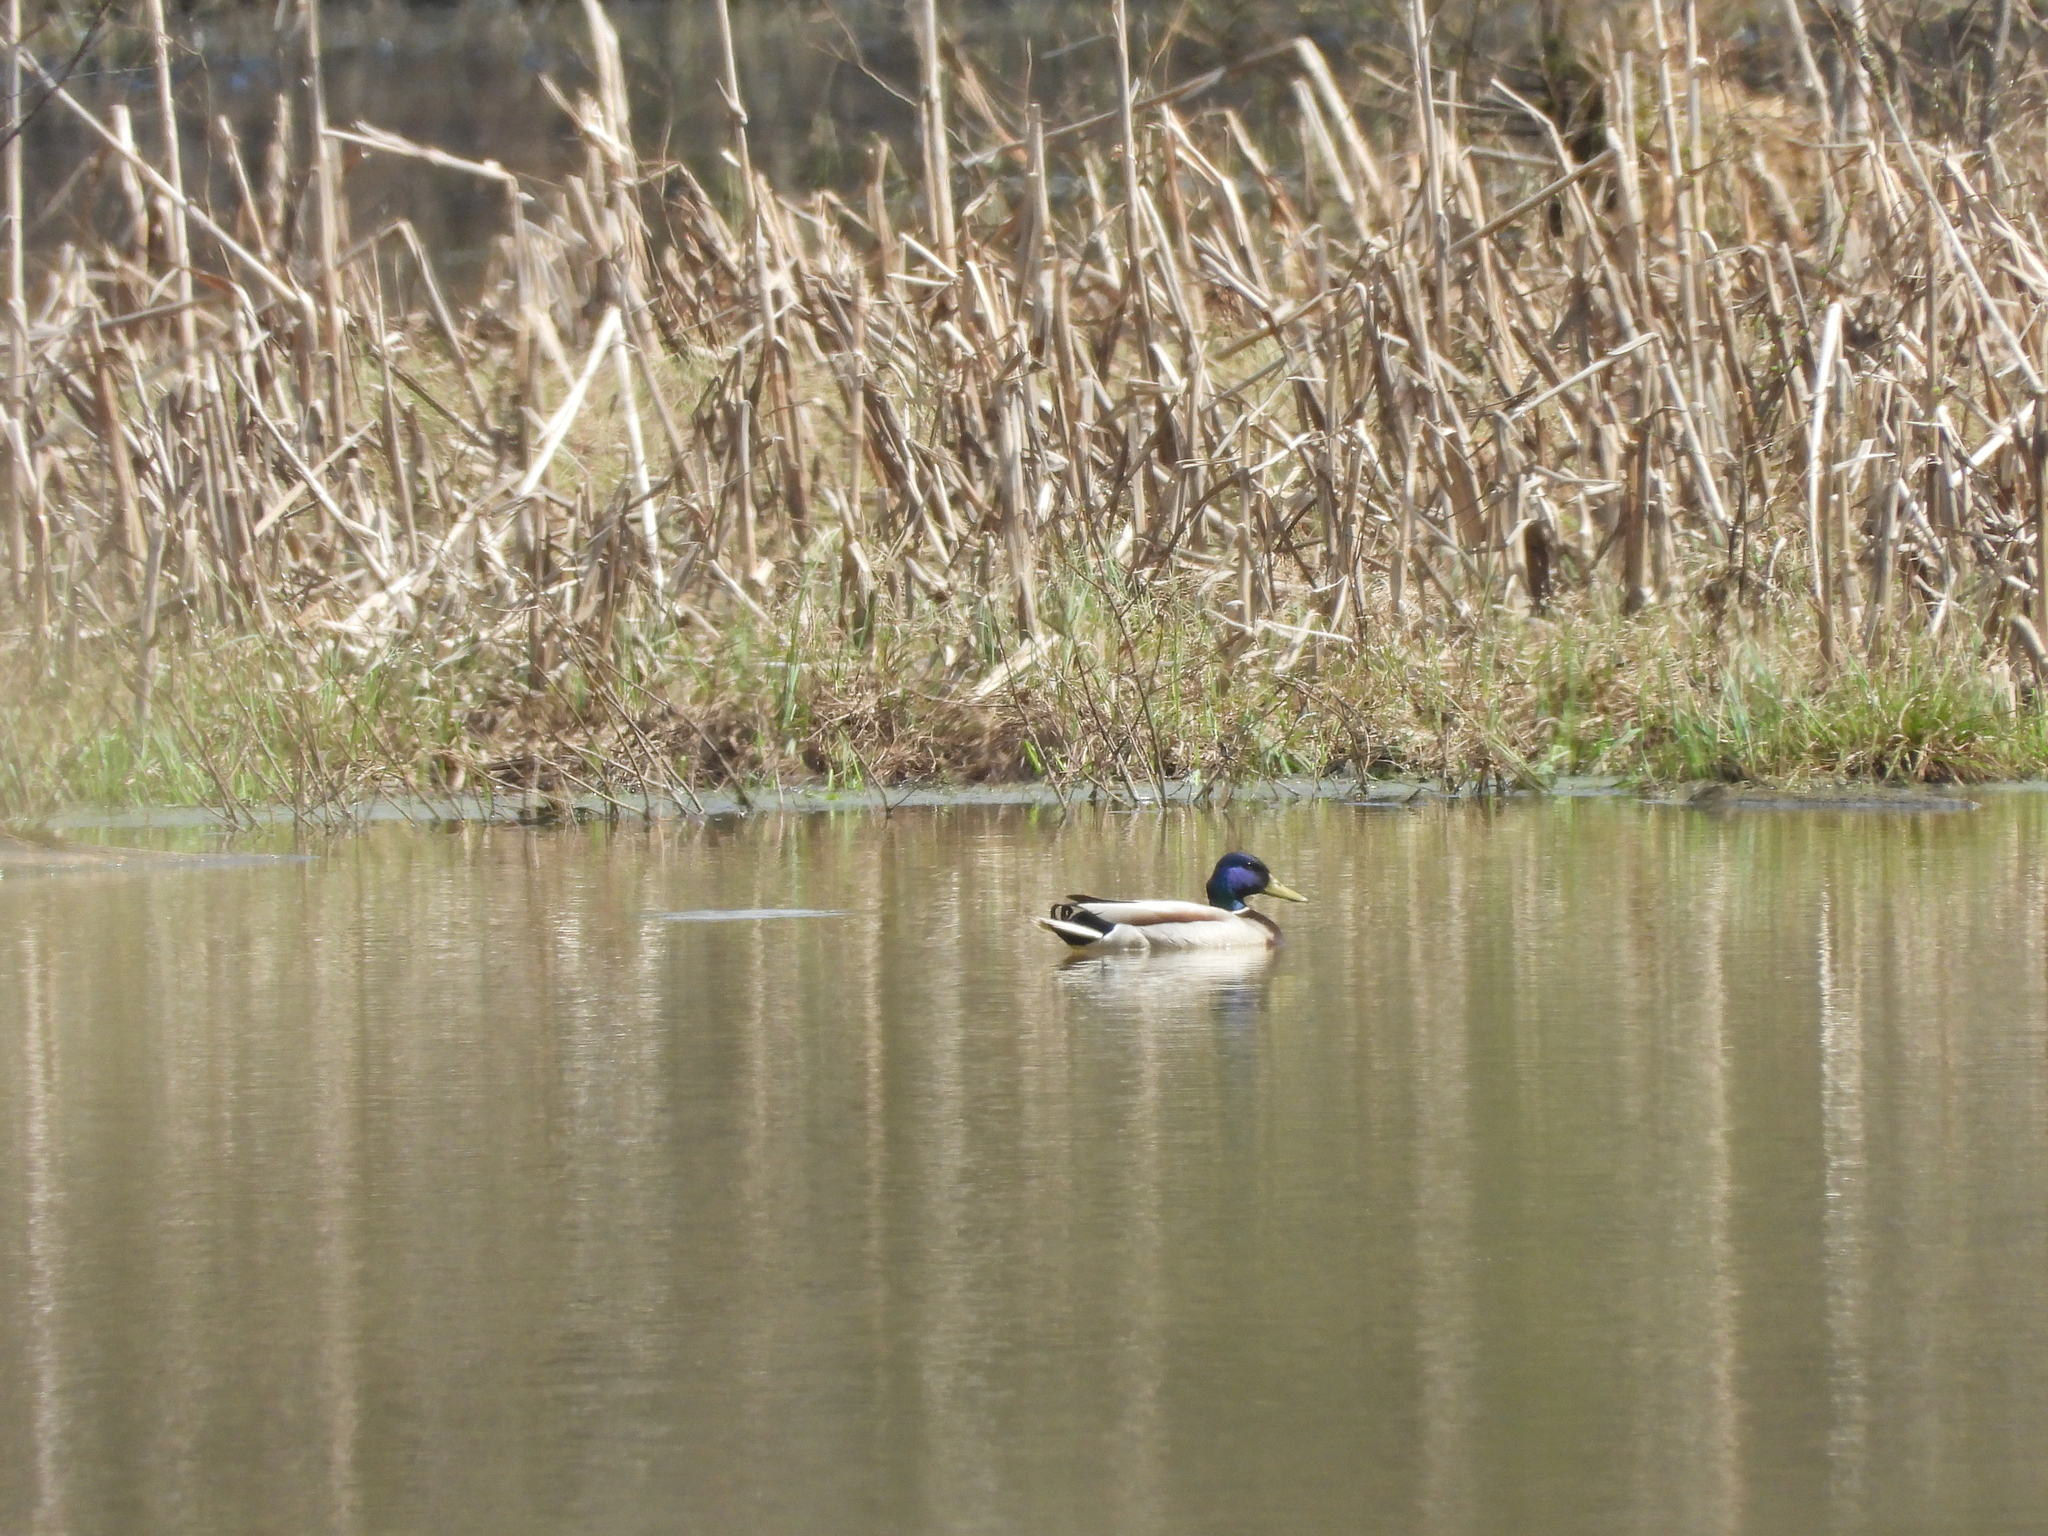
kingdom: Animalia
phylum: Chordata
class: Aves
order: Anseriformes
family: Anatidae
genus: Anas
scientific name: Anas platyrhynchos
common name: Mallard
